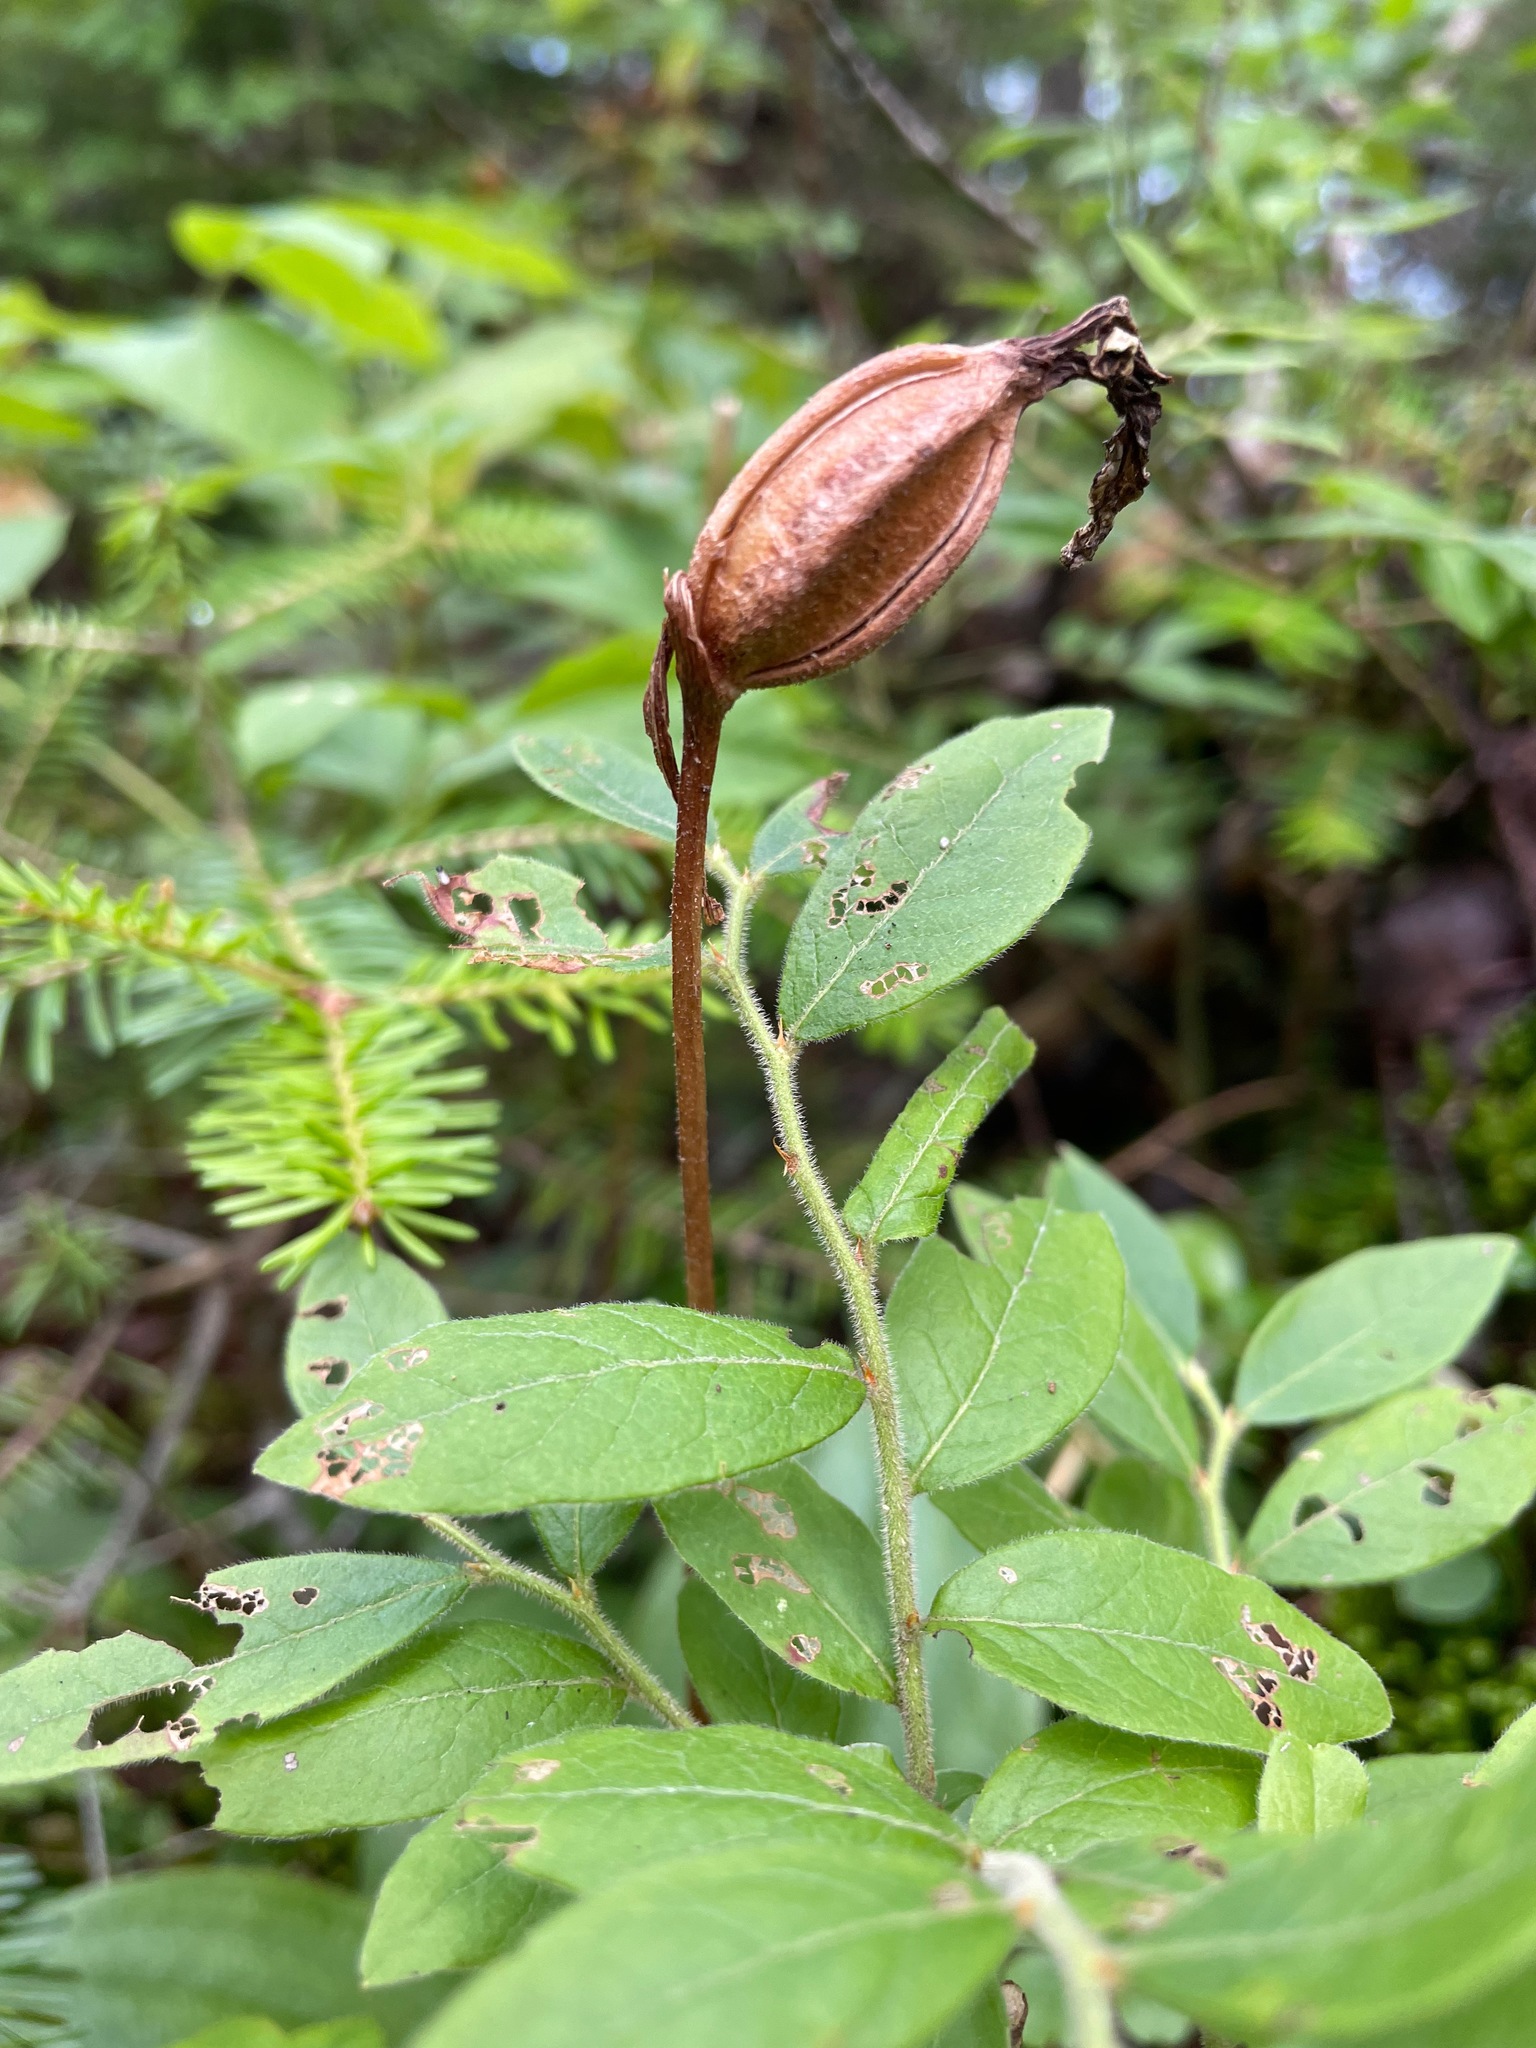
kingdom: Plantae
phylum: Tracheophyta
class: Liliopsida
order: Asparagales
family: Orchidaceae
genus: Cypripedium
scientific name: Cypripedium acaule
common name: Pink lady's-slipper
